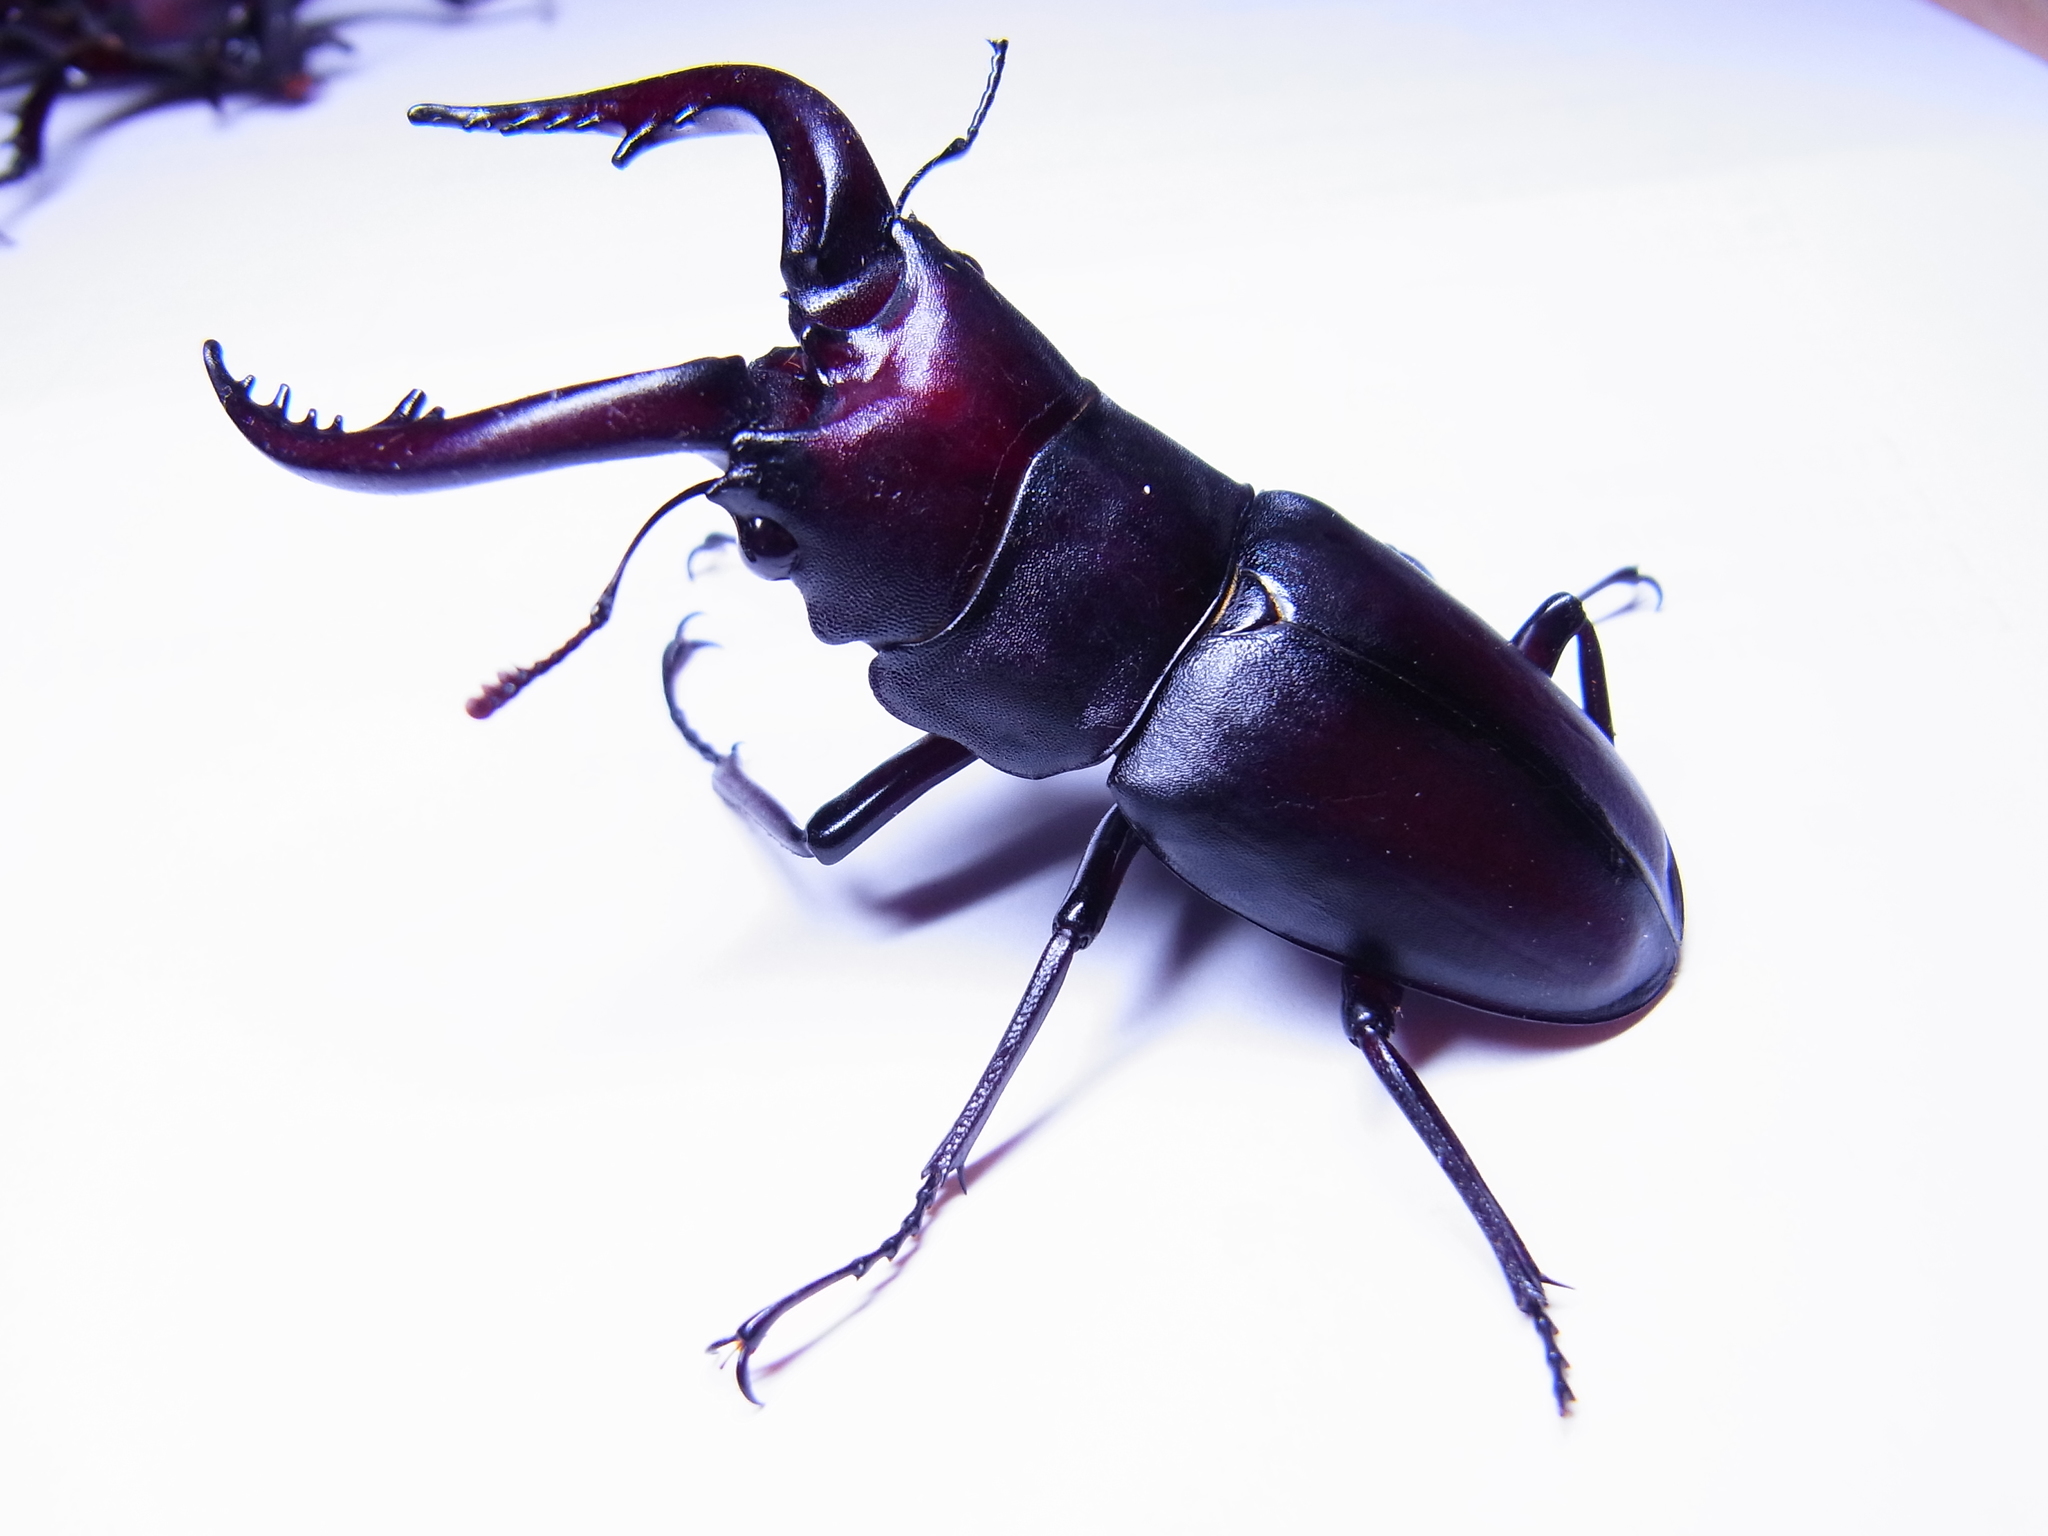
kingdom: Animalia
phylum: Arthropoda
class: Insecta
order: Coleoptera
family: Lucanidae
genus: Prosopocoilus
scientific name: Prosopocoilus inclinatus
